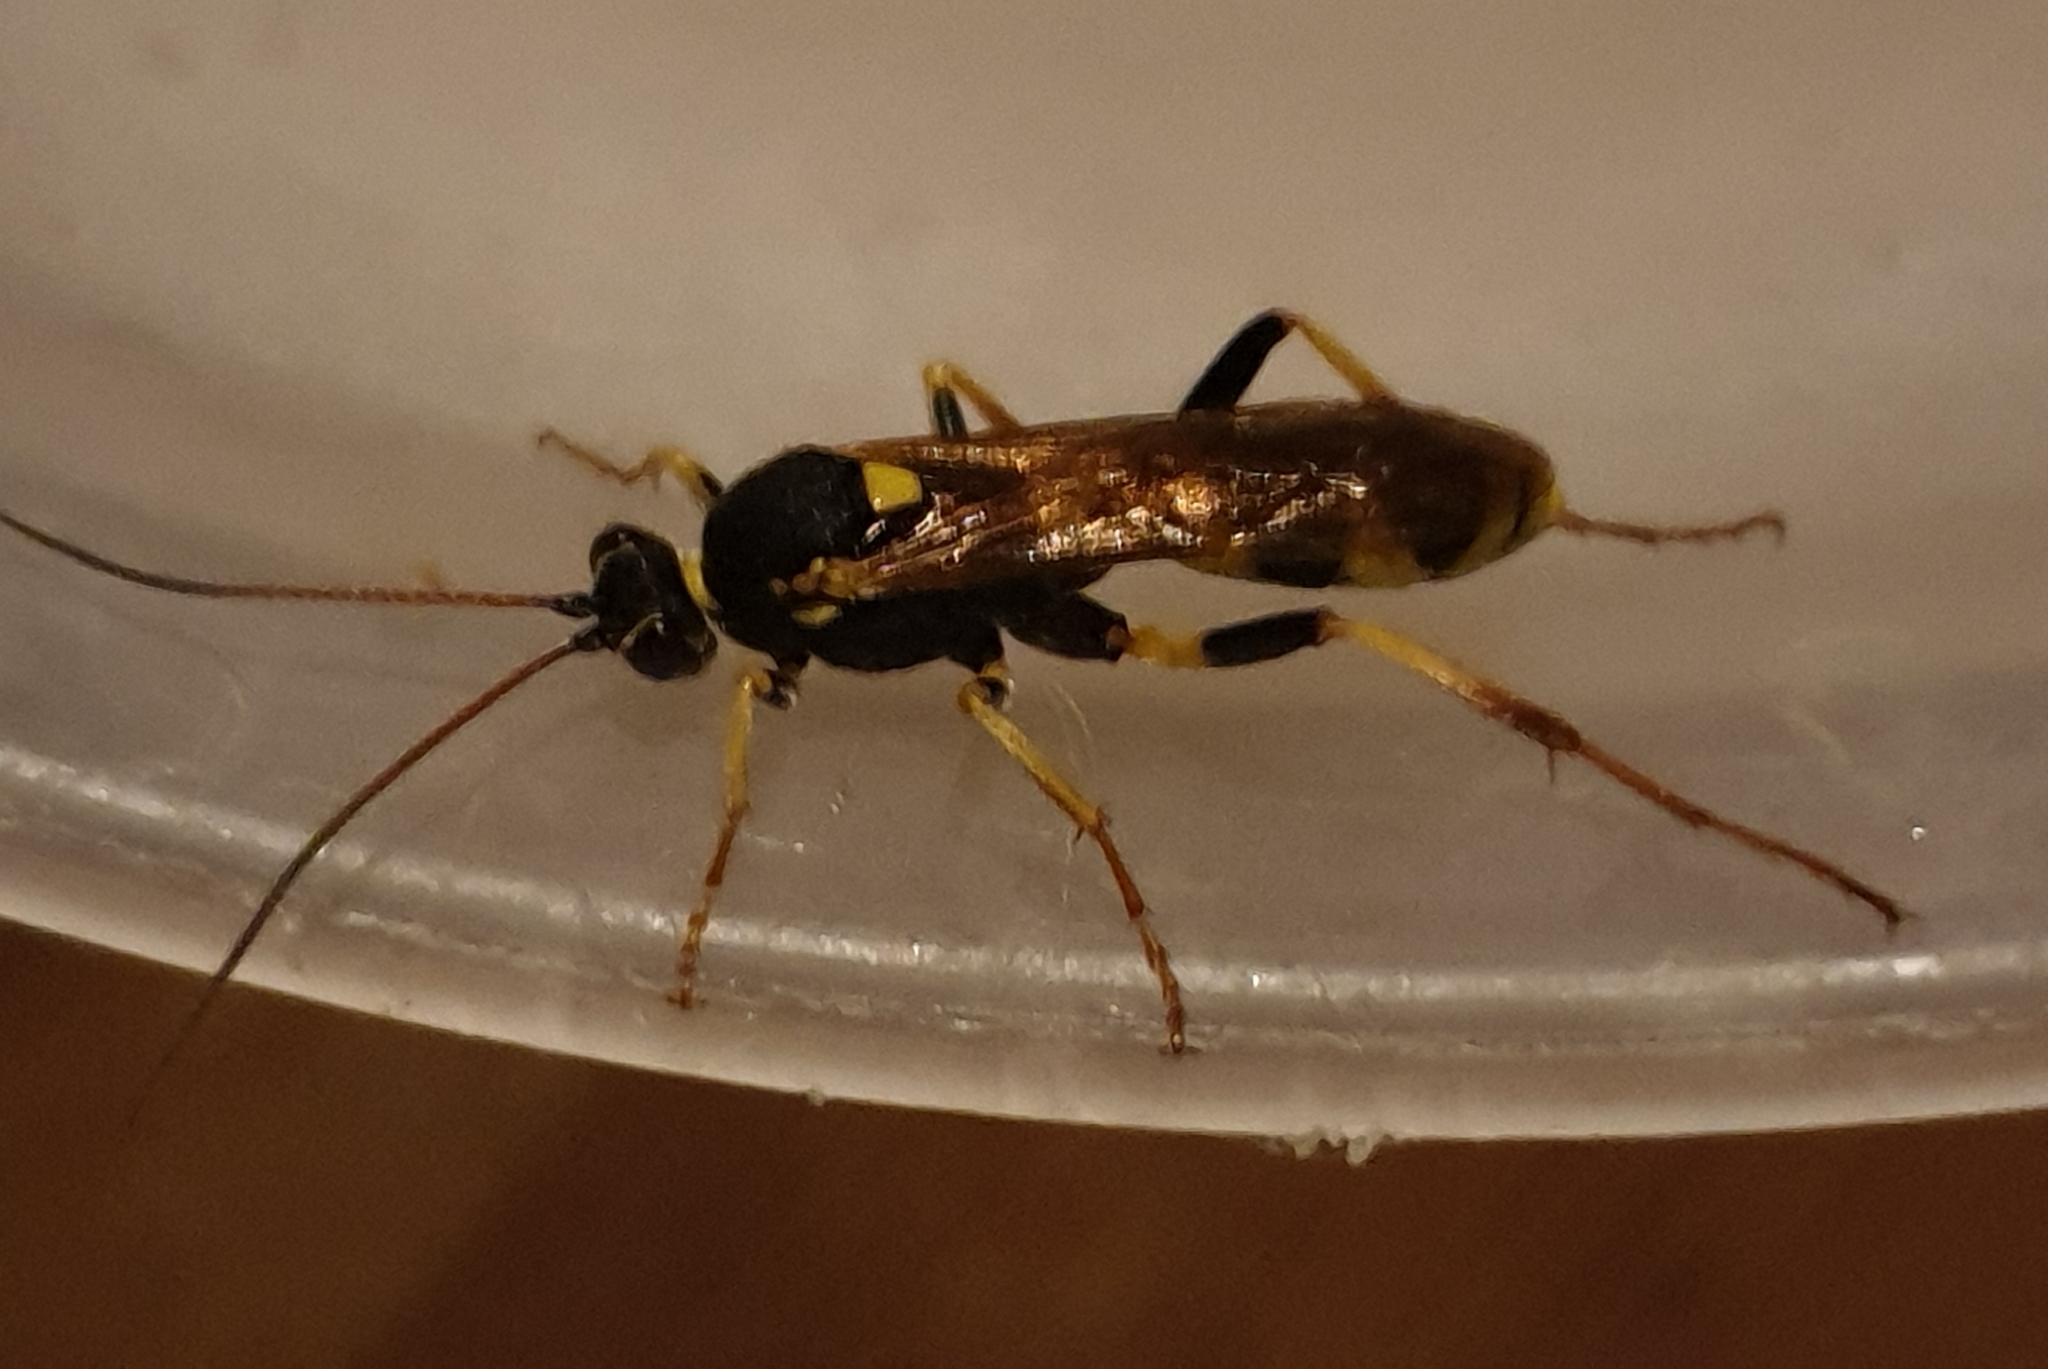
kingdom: Animalia
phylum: Arthropoda
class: Insecta
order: Hymenoptera
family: Ichneumonidae
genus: Amblyteles
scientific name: Amblyteles armatorius
